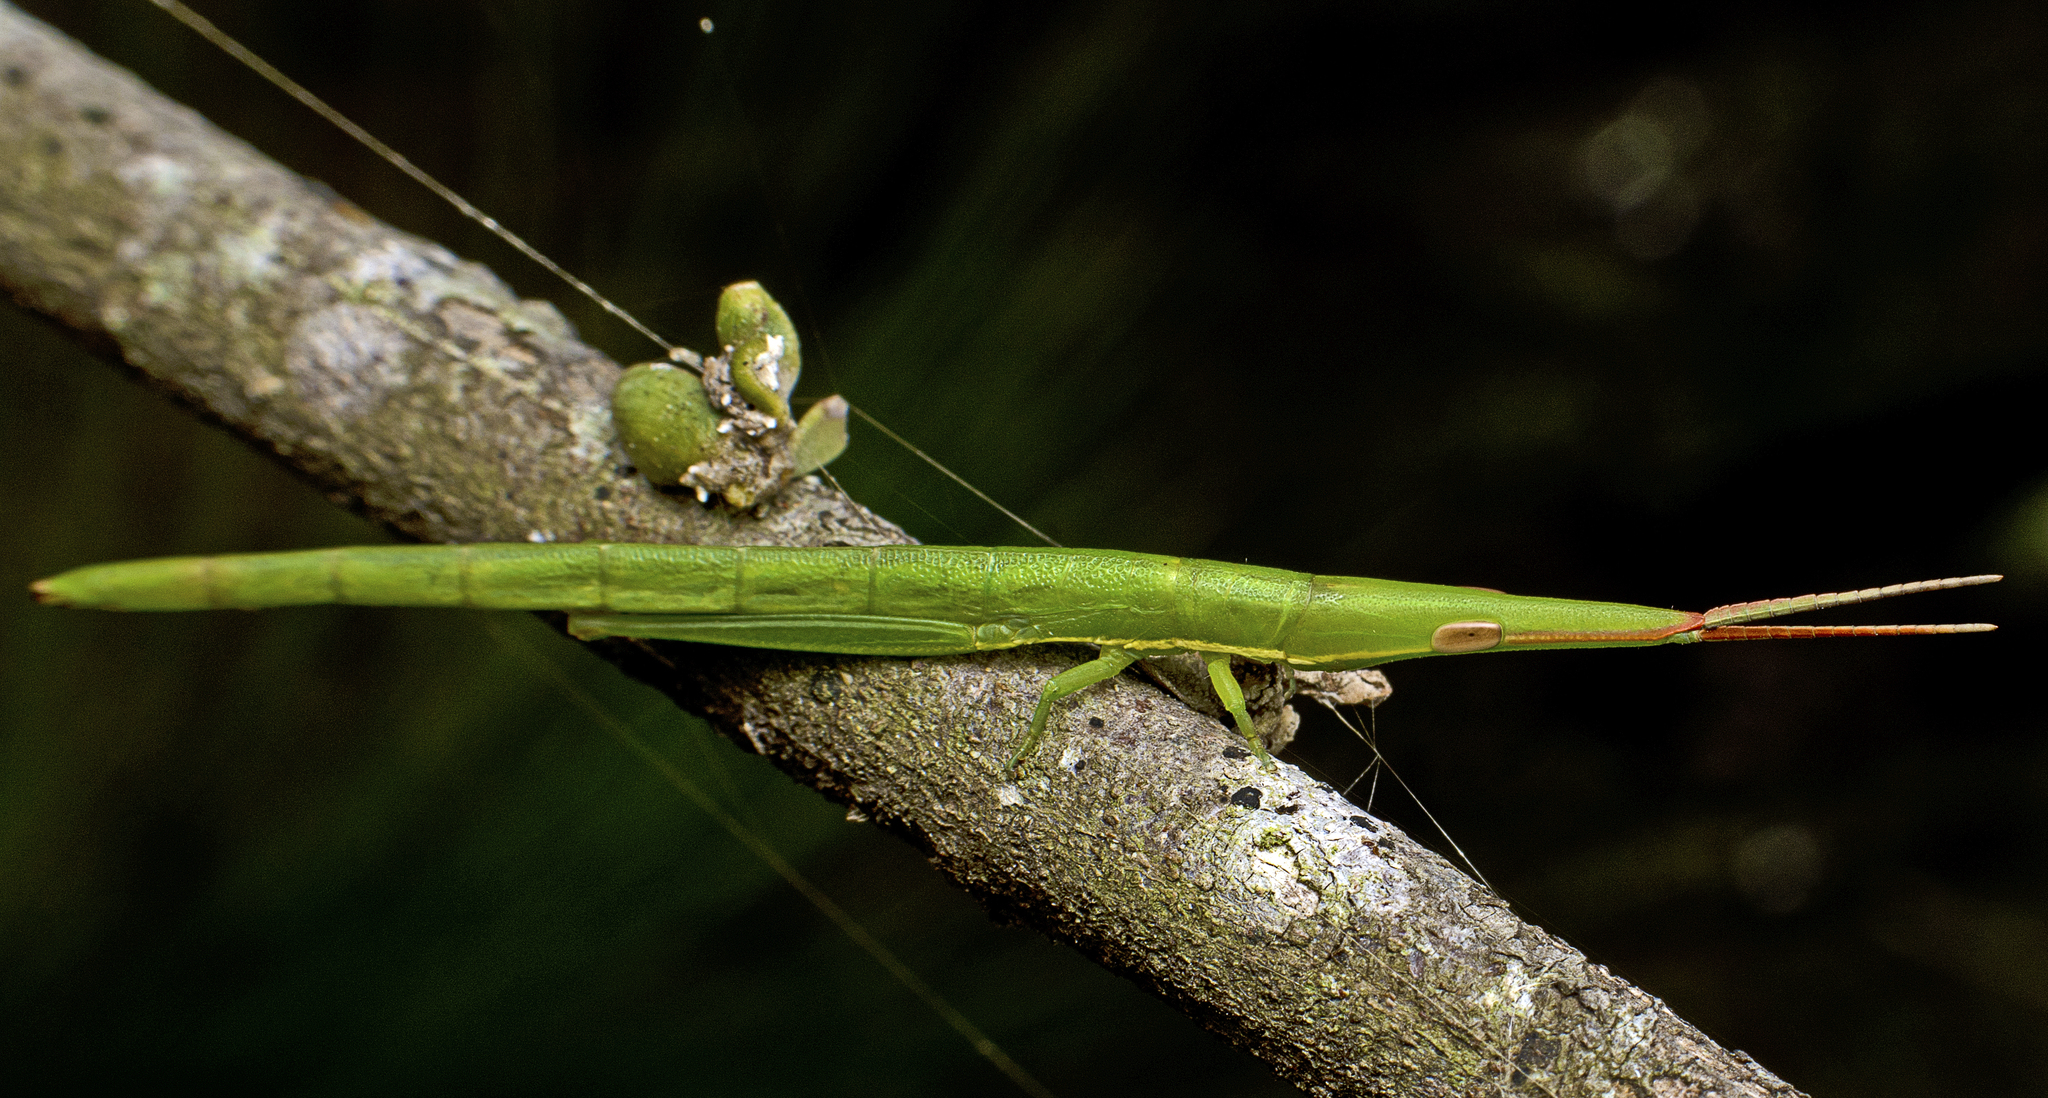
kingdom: Animalia
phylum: Arthropoda
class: Insecta
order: Orthoptera
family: Pyrgomorphidae
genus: Psednura
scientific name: Psednura musgravei
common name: Musgrave's psednura
